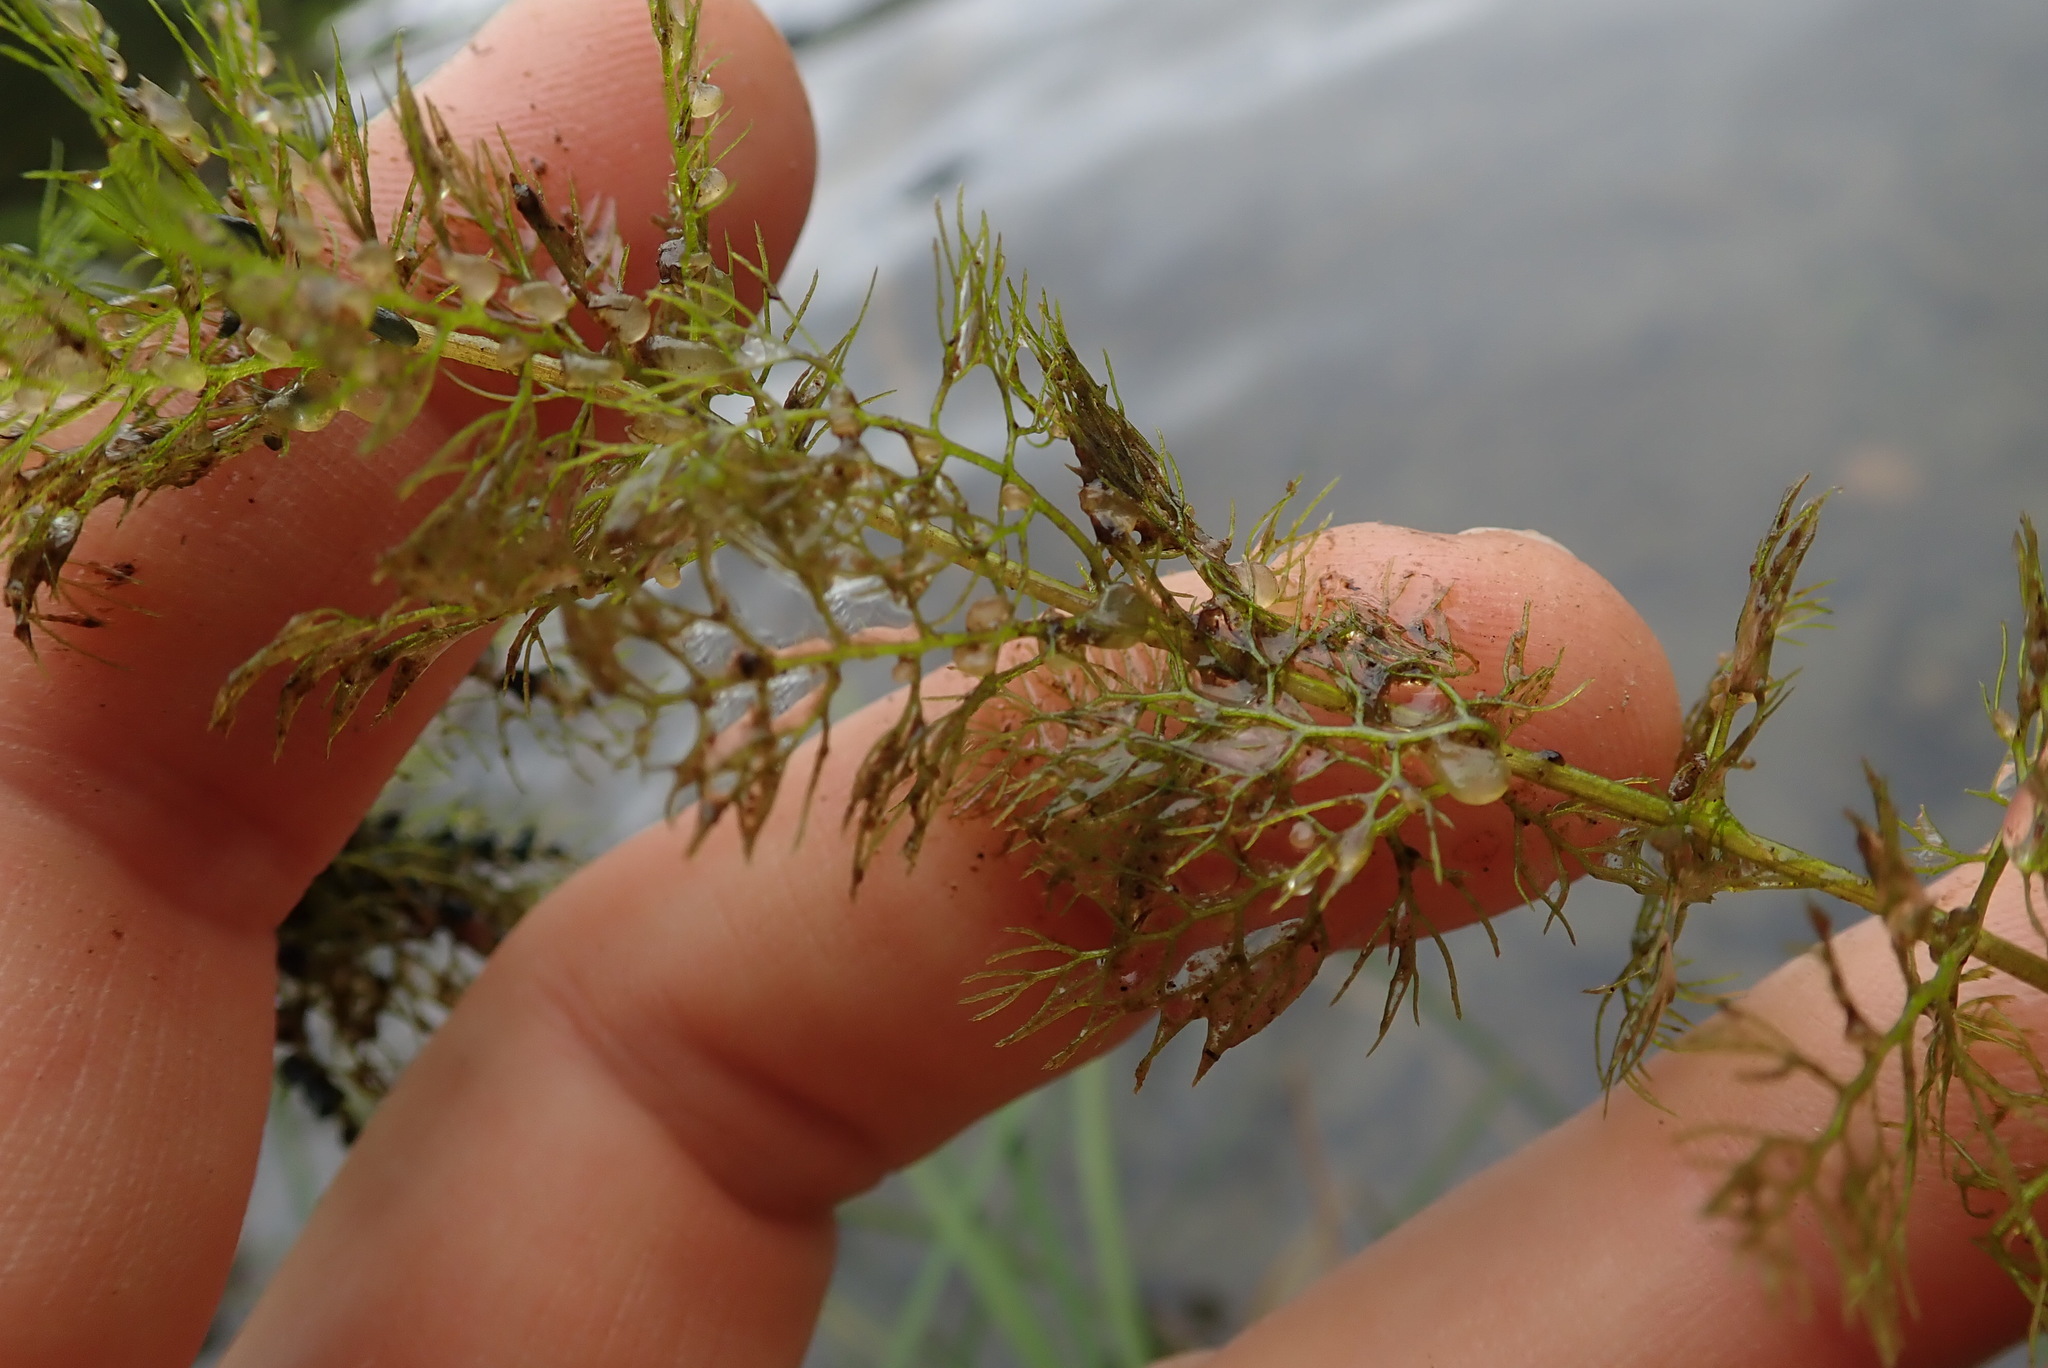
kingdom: Plantae
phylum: Tracheophyta
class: Magnoliopsida
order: Lamiales
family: Lentibulariaceae
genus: Utricularia
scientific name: Utricularia macrorhiza
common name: Common bladderwort
